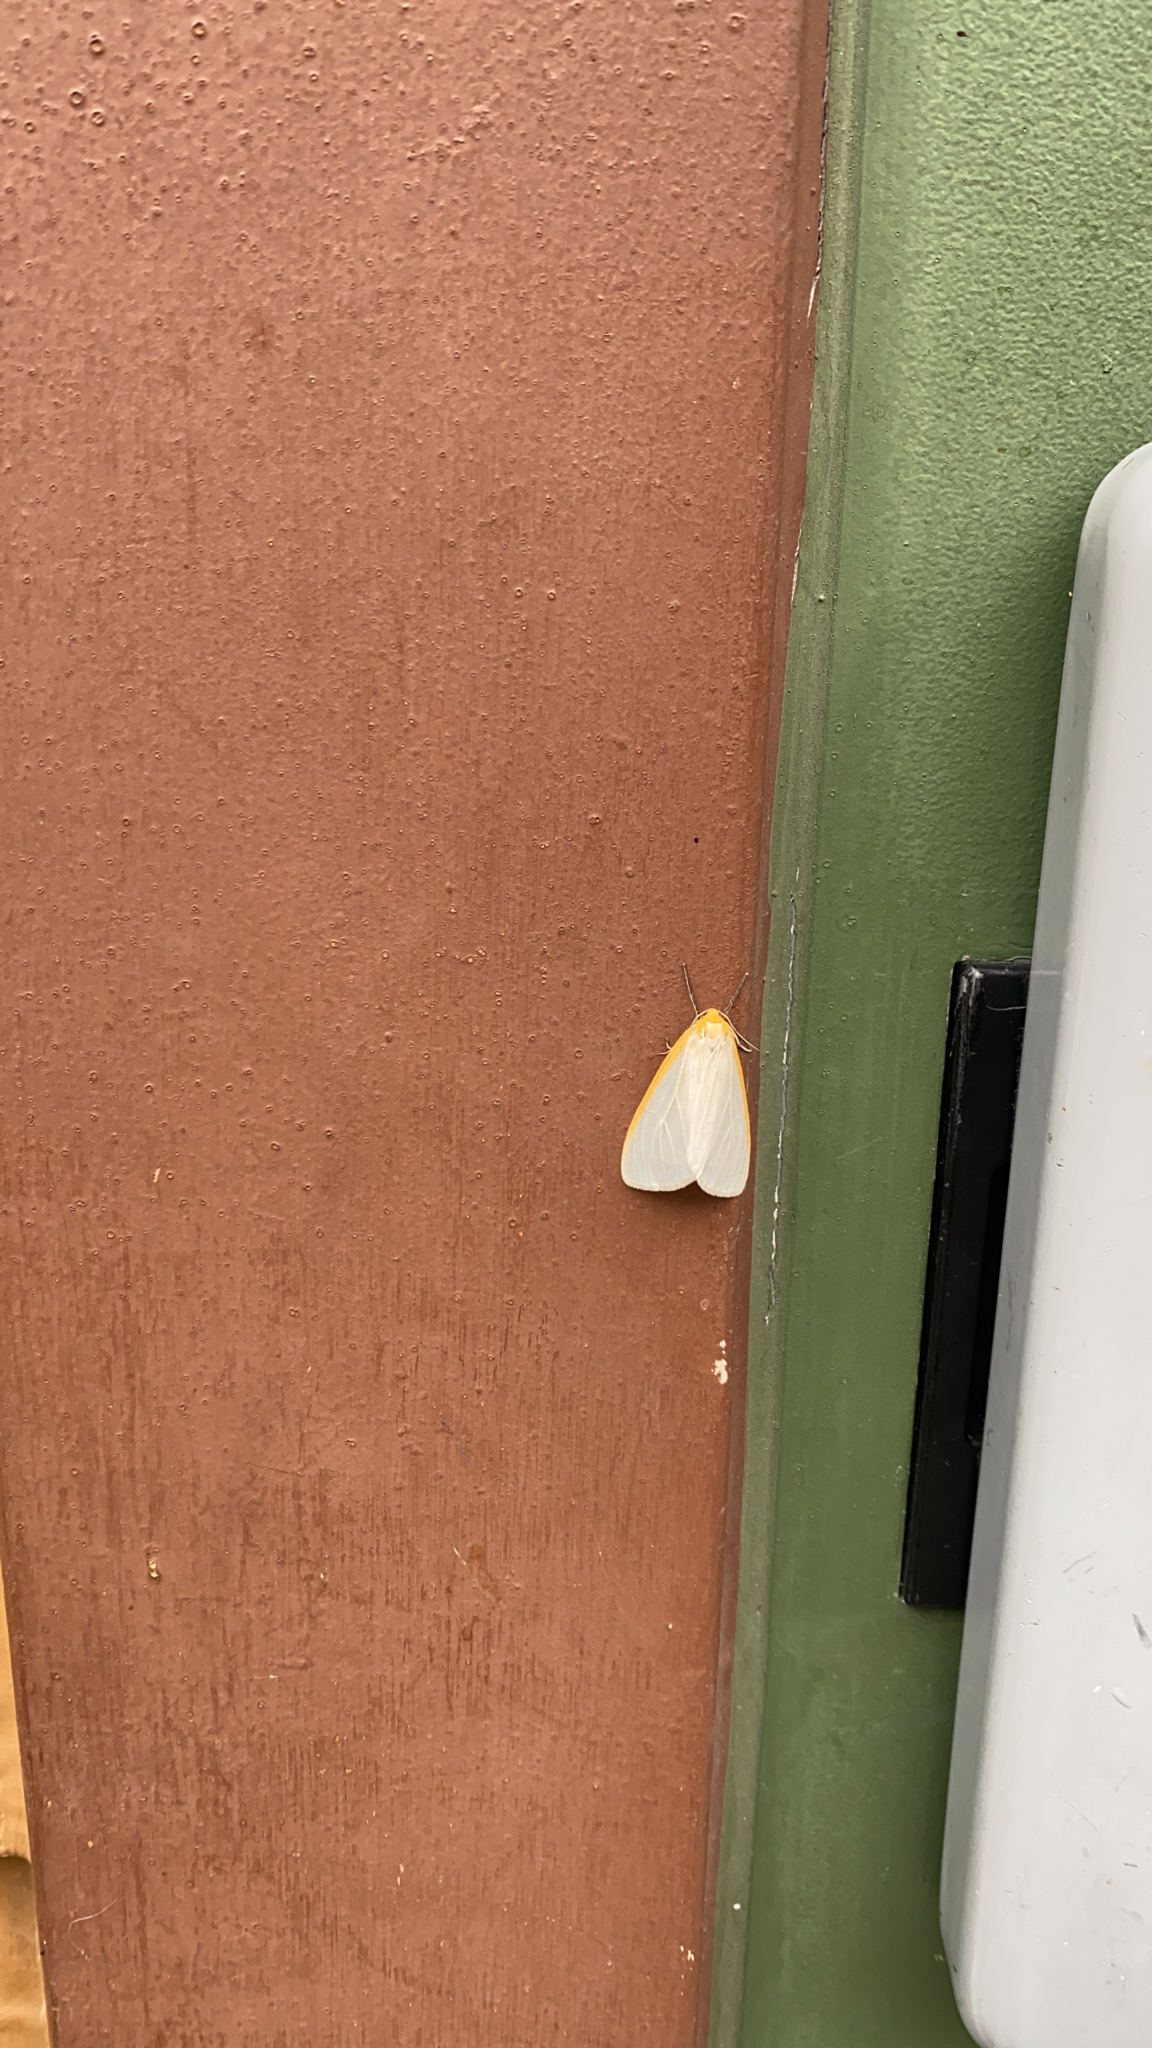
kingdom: Animalia
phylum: Arthropoda
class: Insecta
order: Lepidoptera
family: Erebidae
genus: Cycnia
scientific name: Cycnia tenera
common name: Delicate cycnia moth
